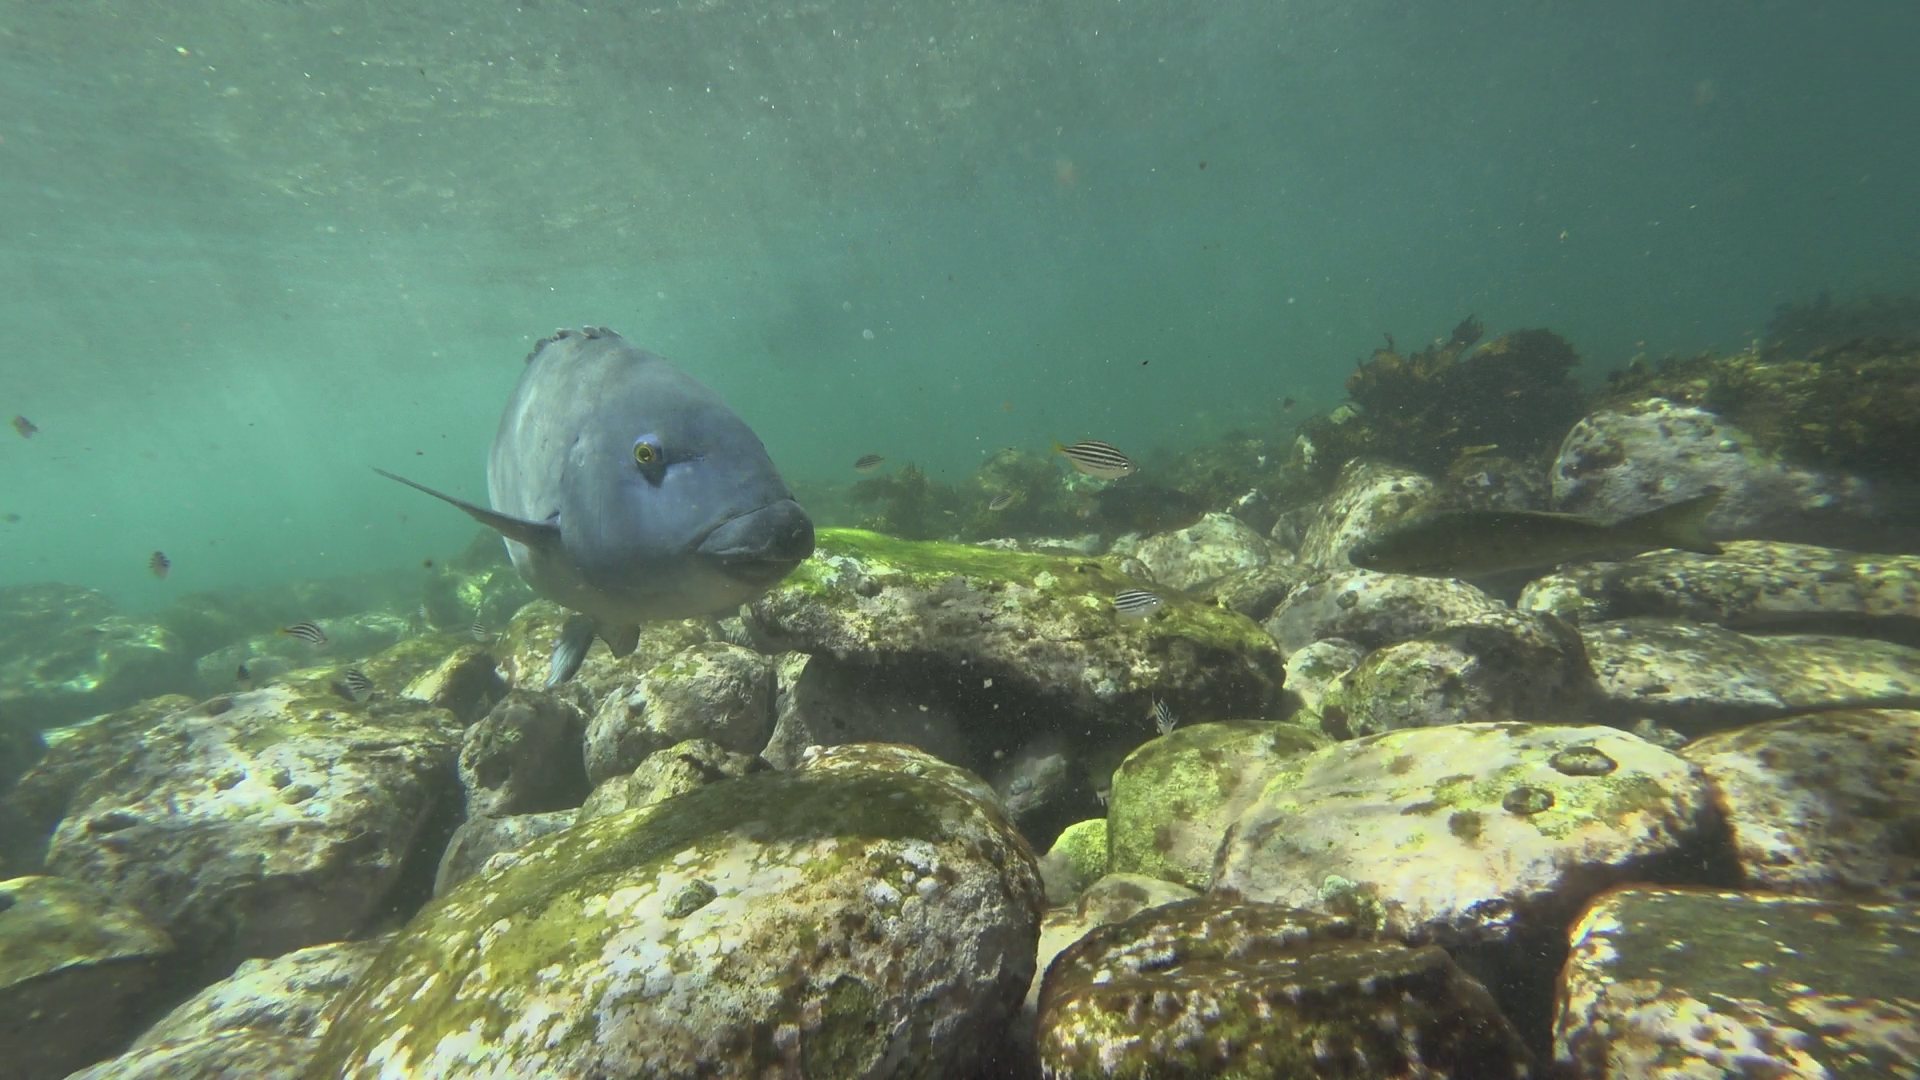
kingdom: Animalia
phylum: Chordata
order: Perciformes
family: Labridae
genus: Achoerodus
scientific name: Achoerodus viridis
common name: Brown groper
